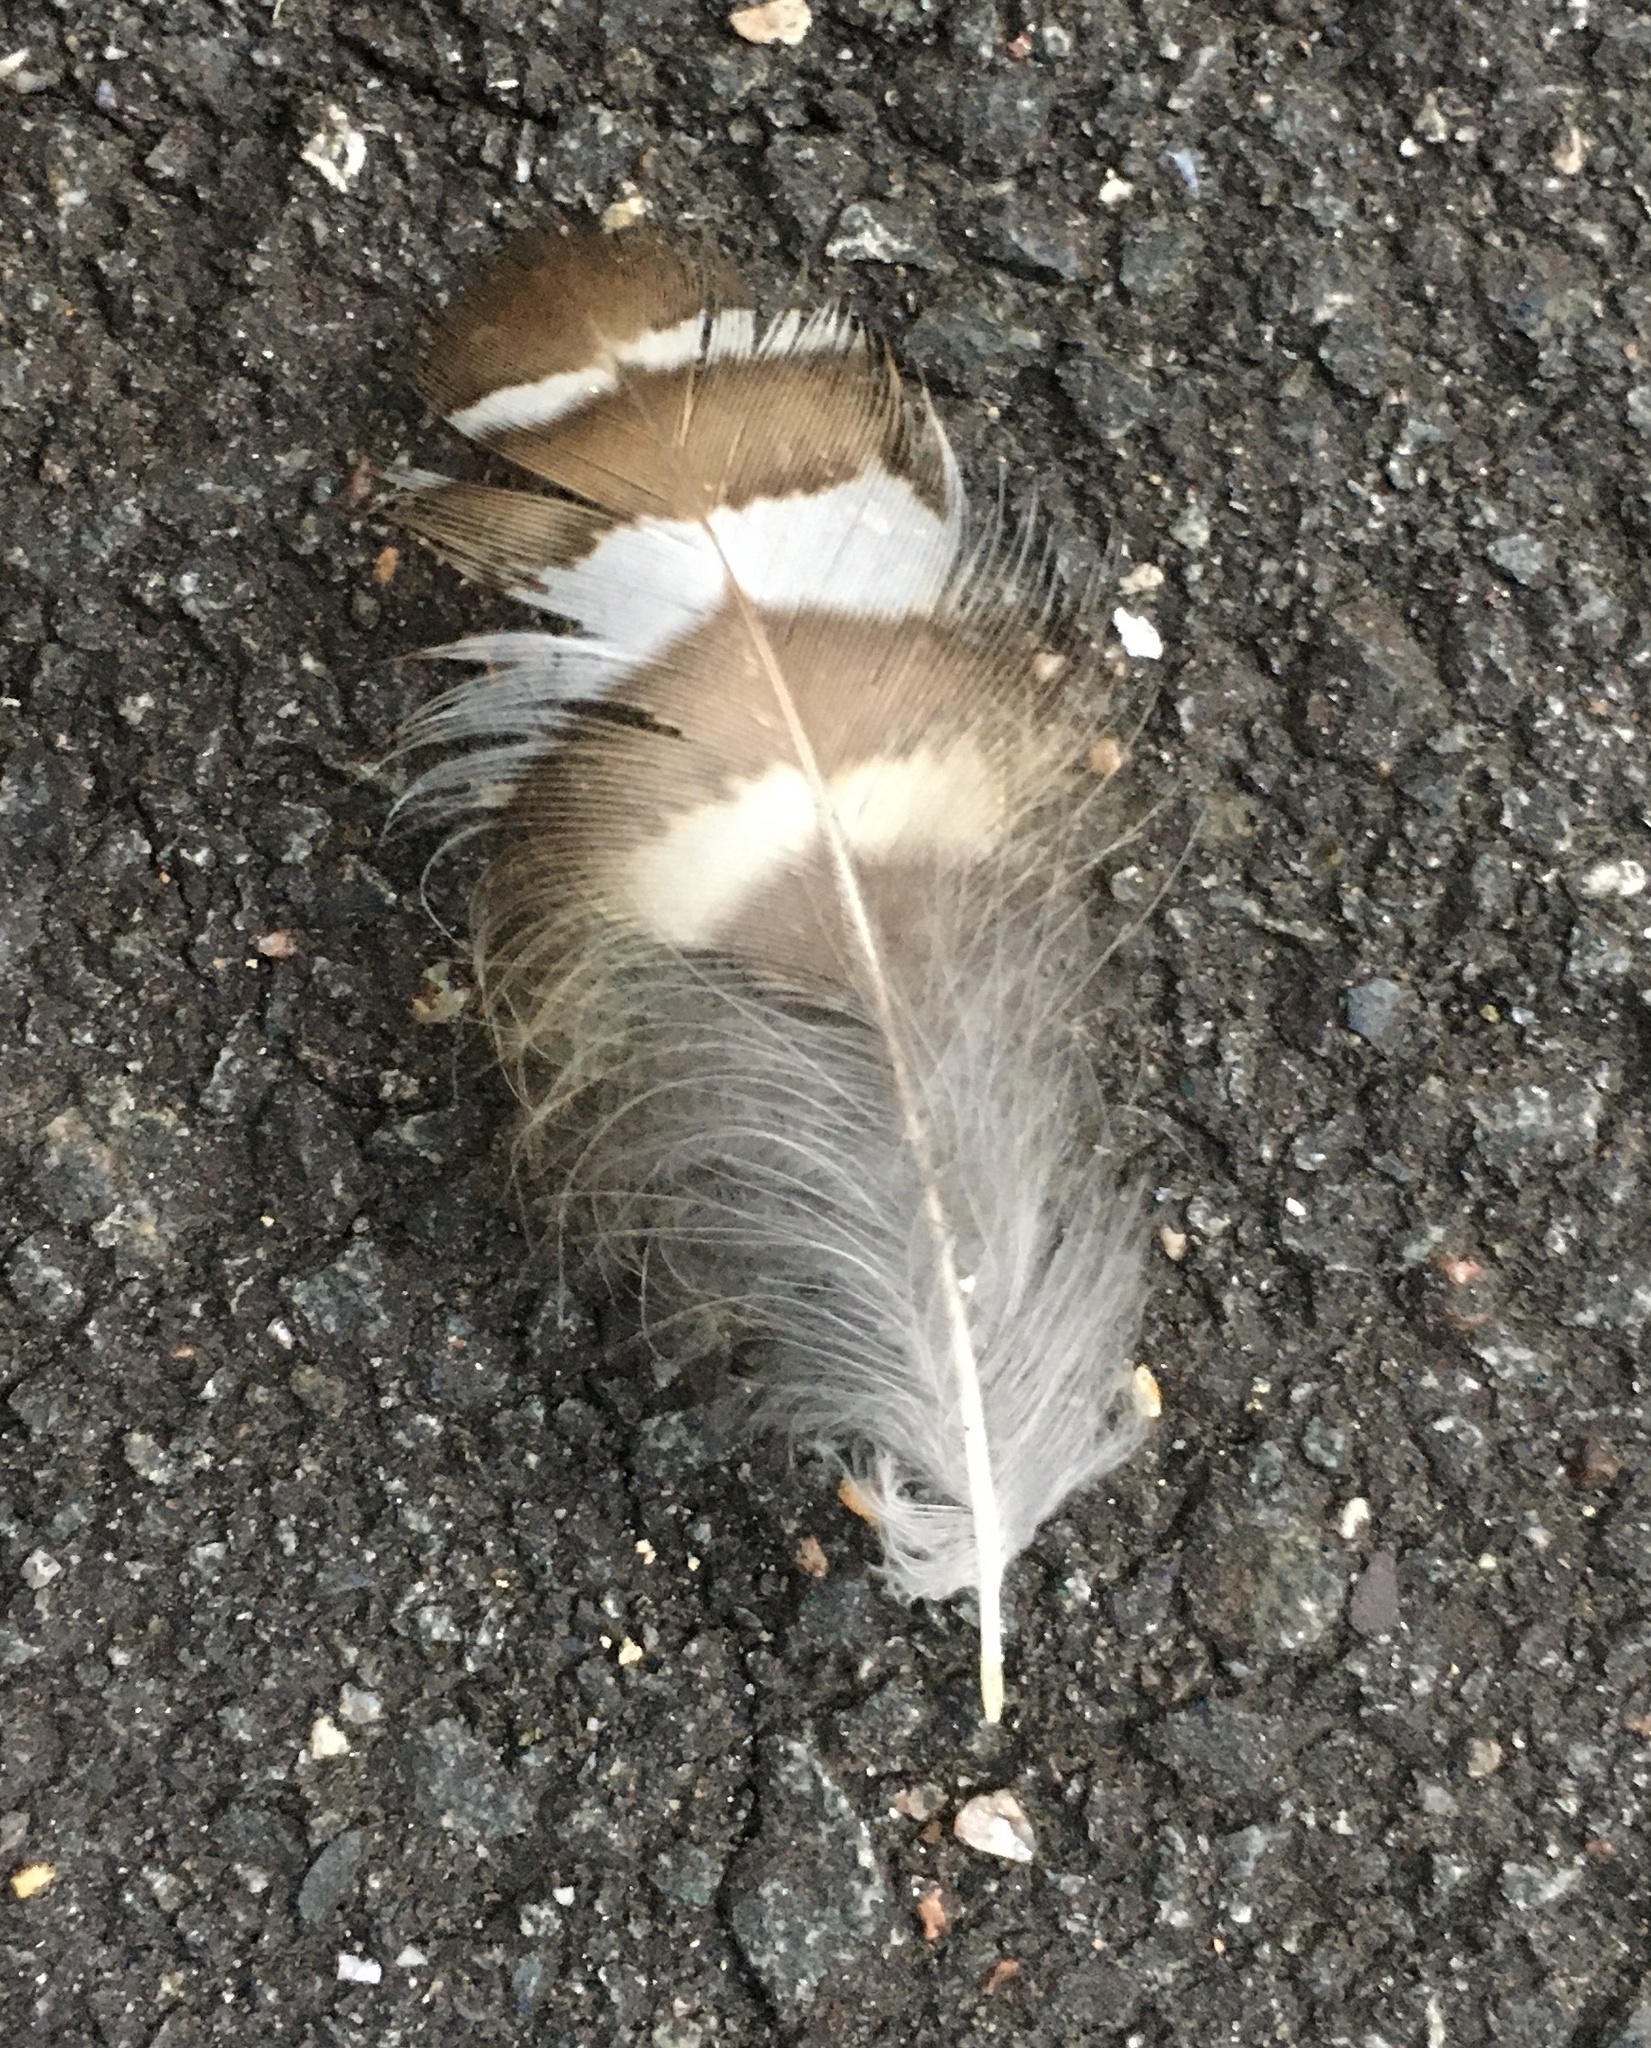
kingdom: Animalia
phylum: Chordata
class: Aves
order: Strigiformes
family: Strigidae
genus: Strix
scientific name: Strix varia
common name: Barred owl
